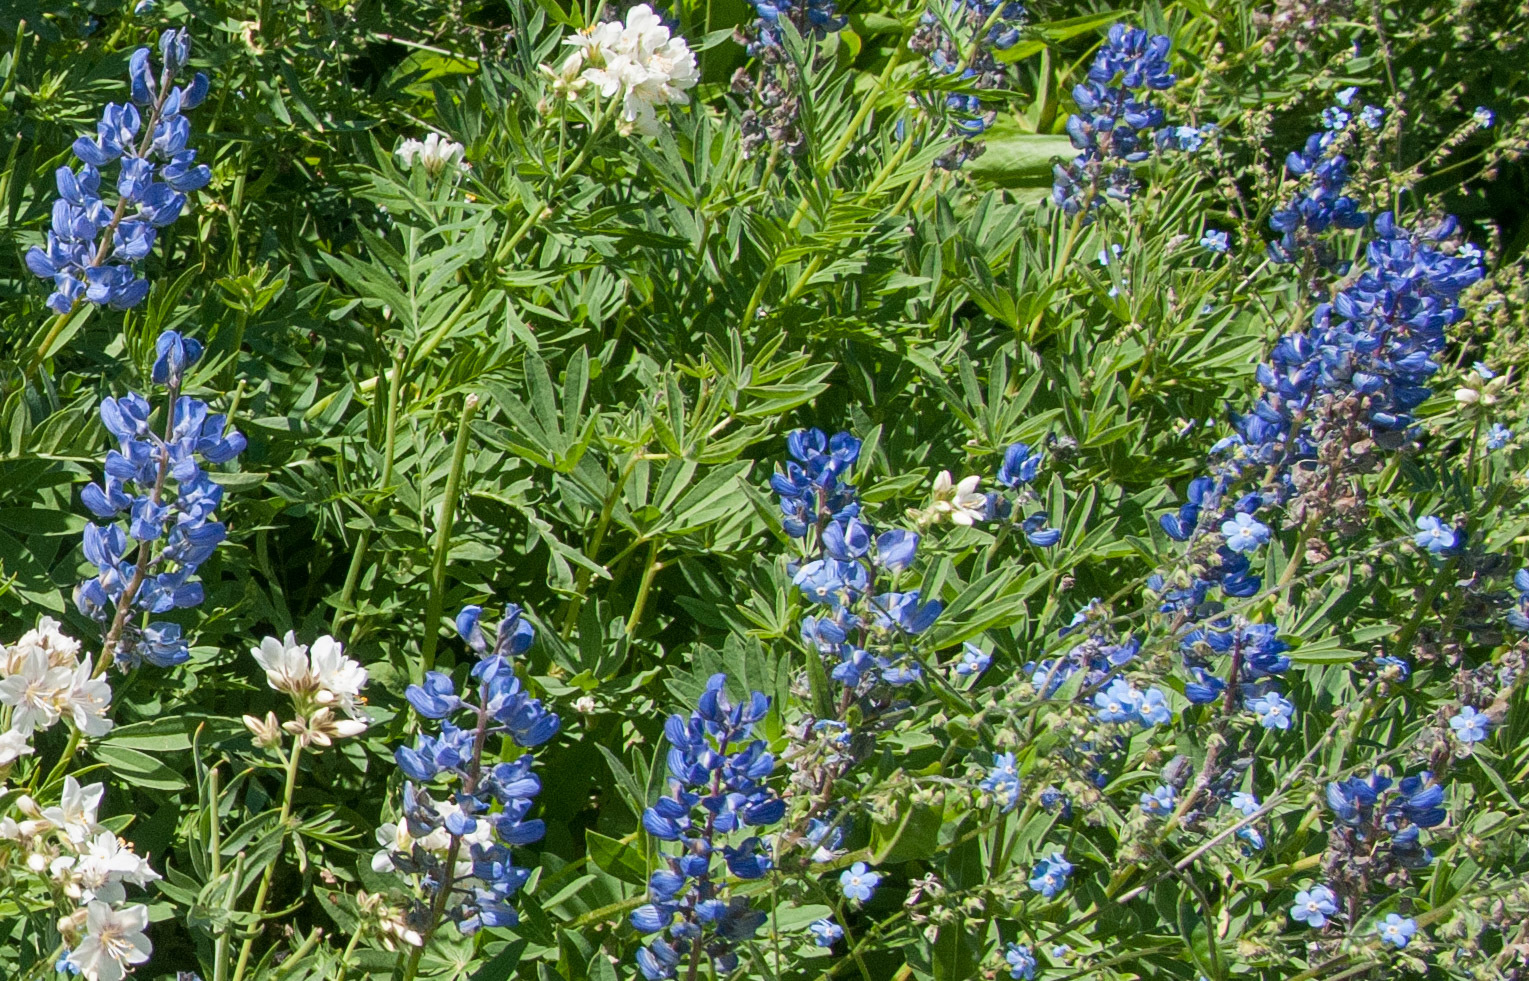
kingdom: Plantae
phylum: Tracheophyta
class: Magnoliopsida
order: Fabales
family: Fabaceae
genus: Lupinus
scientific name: Lupinus argenteus
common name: Silvery lupine
